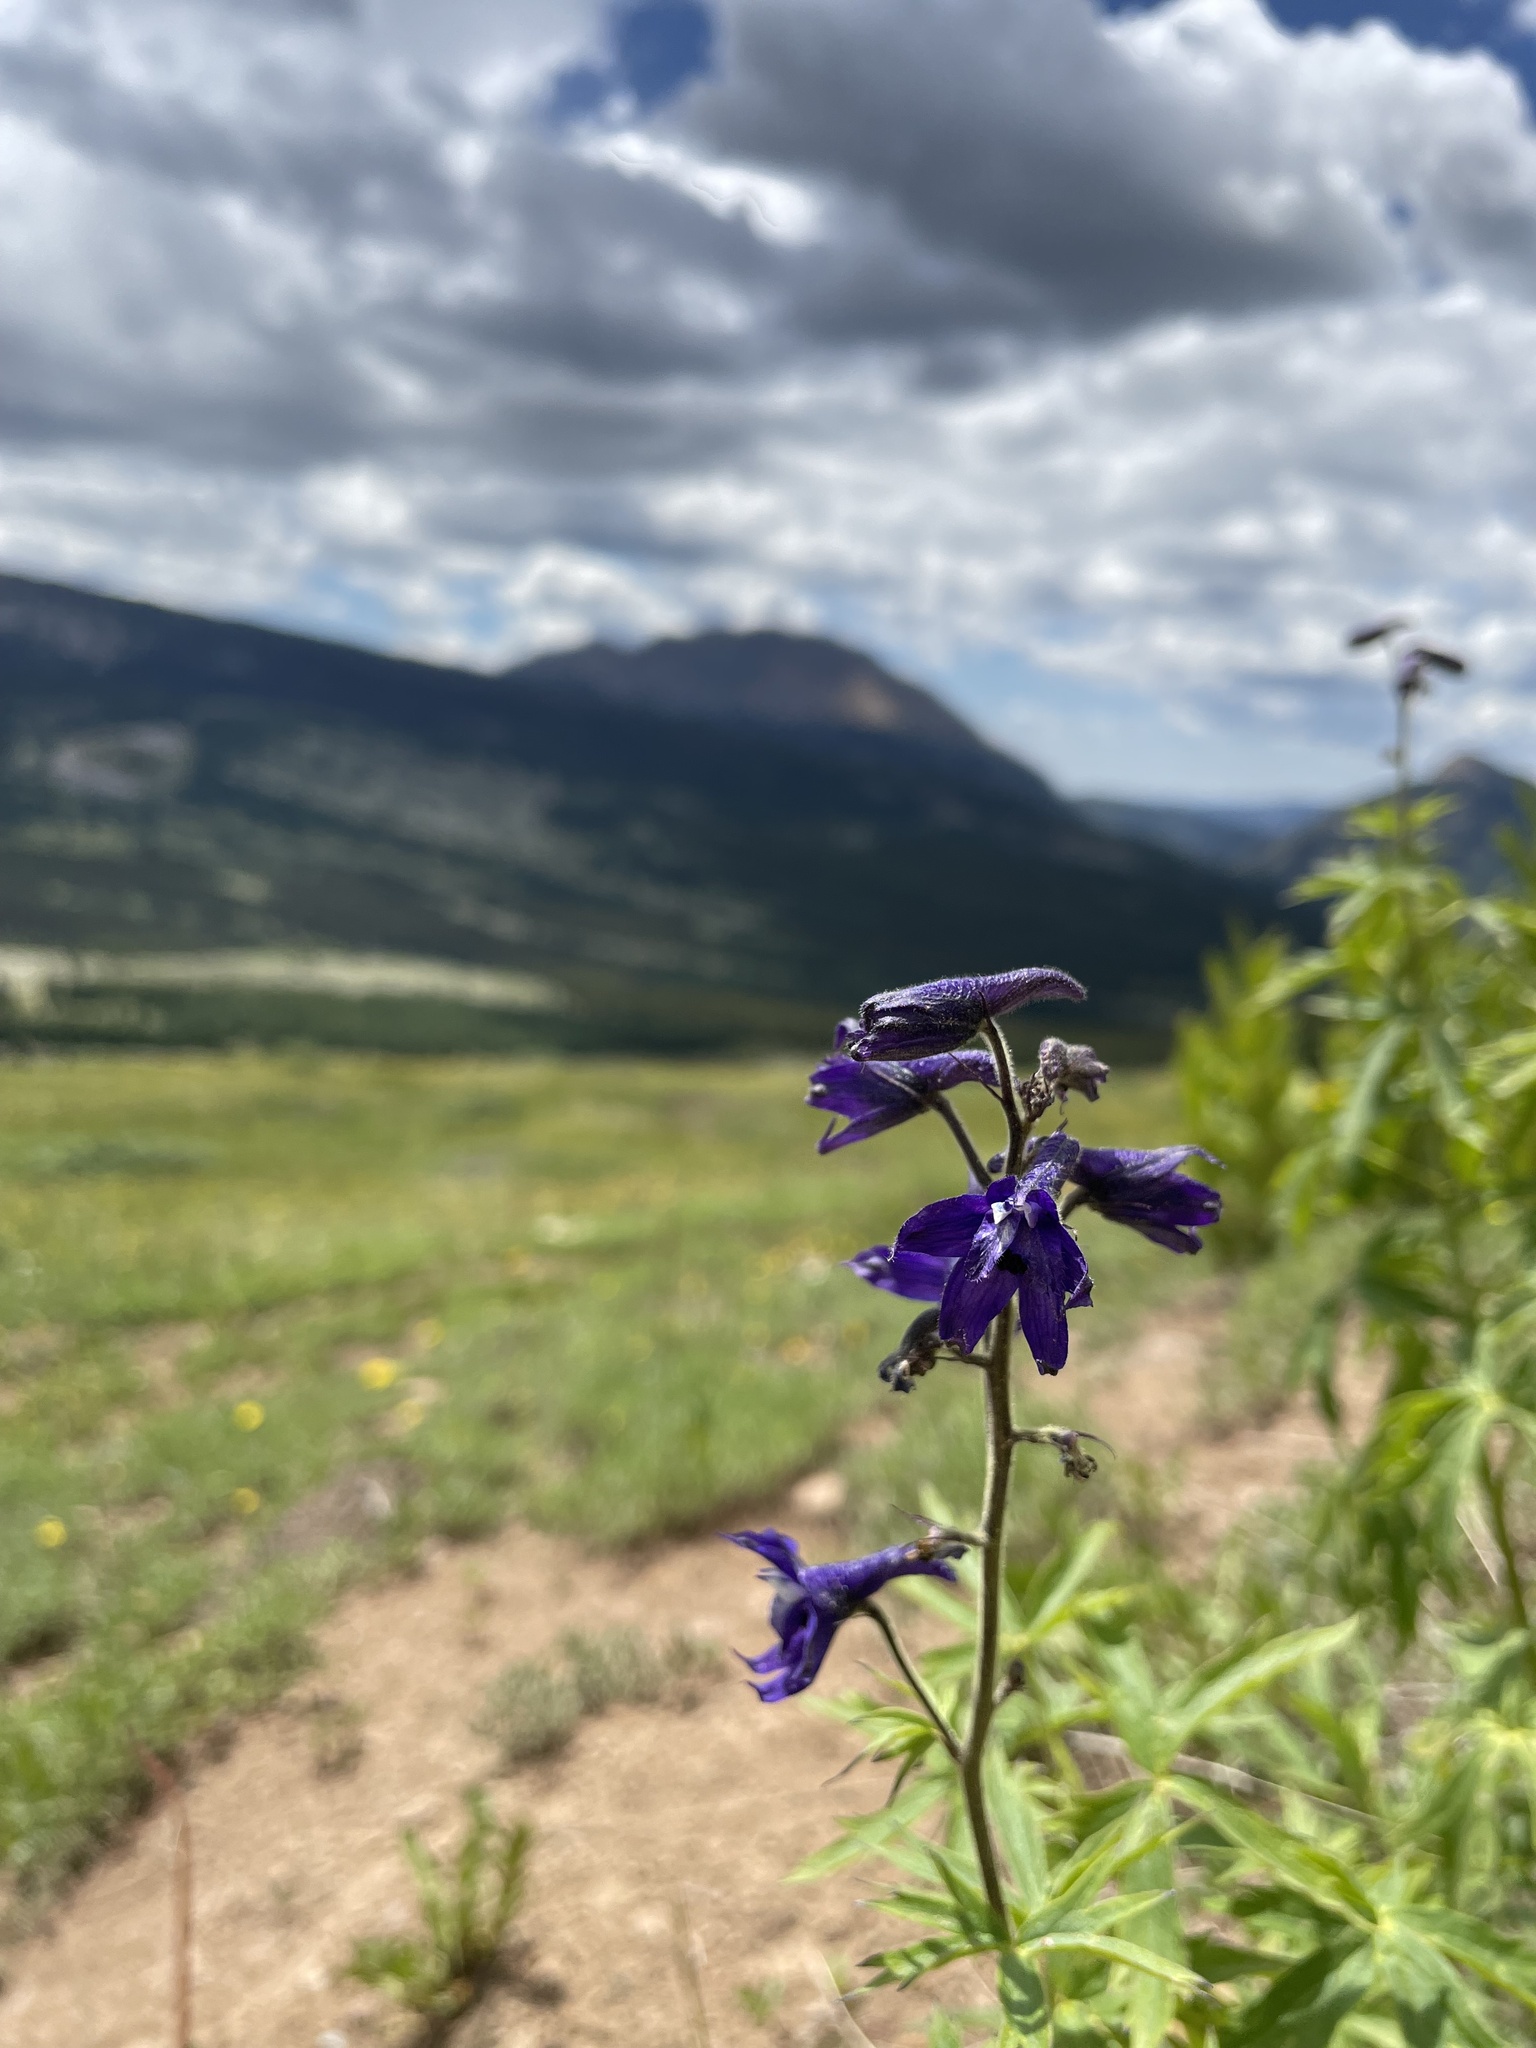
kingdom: Plantae
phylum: Tracheophyta
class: Magnoliopsida
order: Ranunculales
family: Ranunculaceae
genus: Delphinium
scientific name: Delphinium barbeyi
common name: Subalpine larkspur
